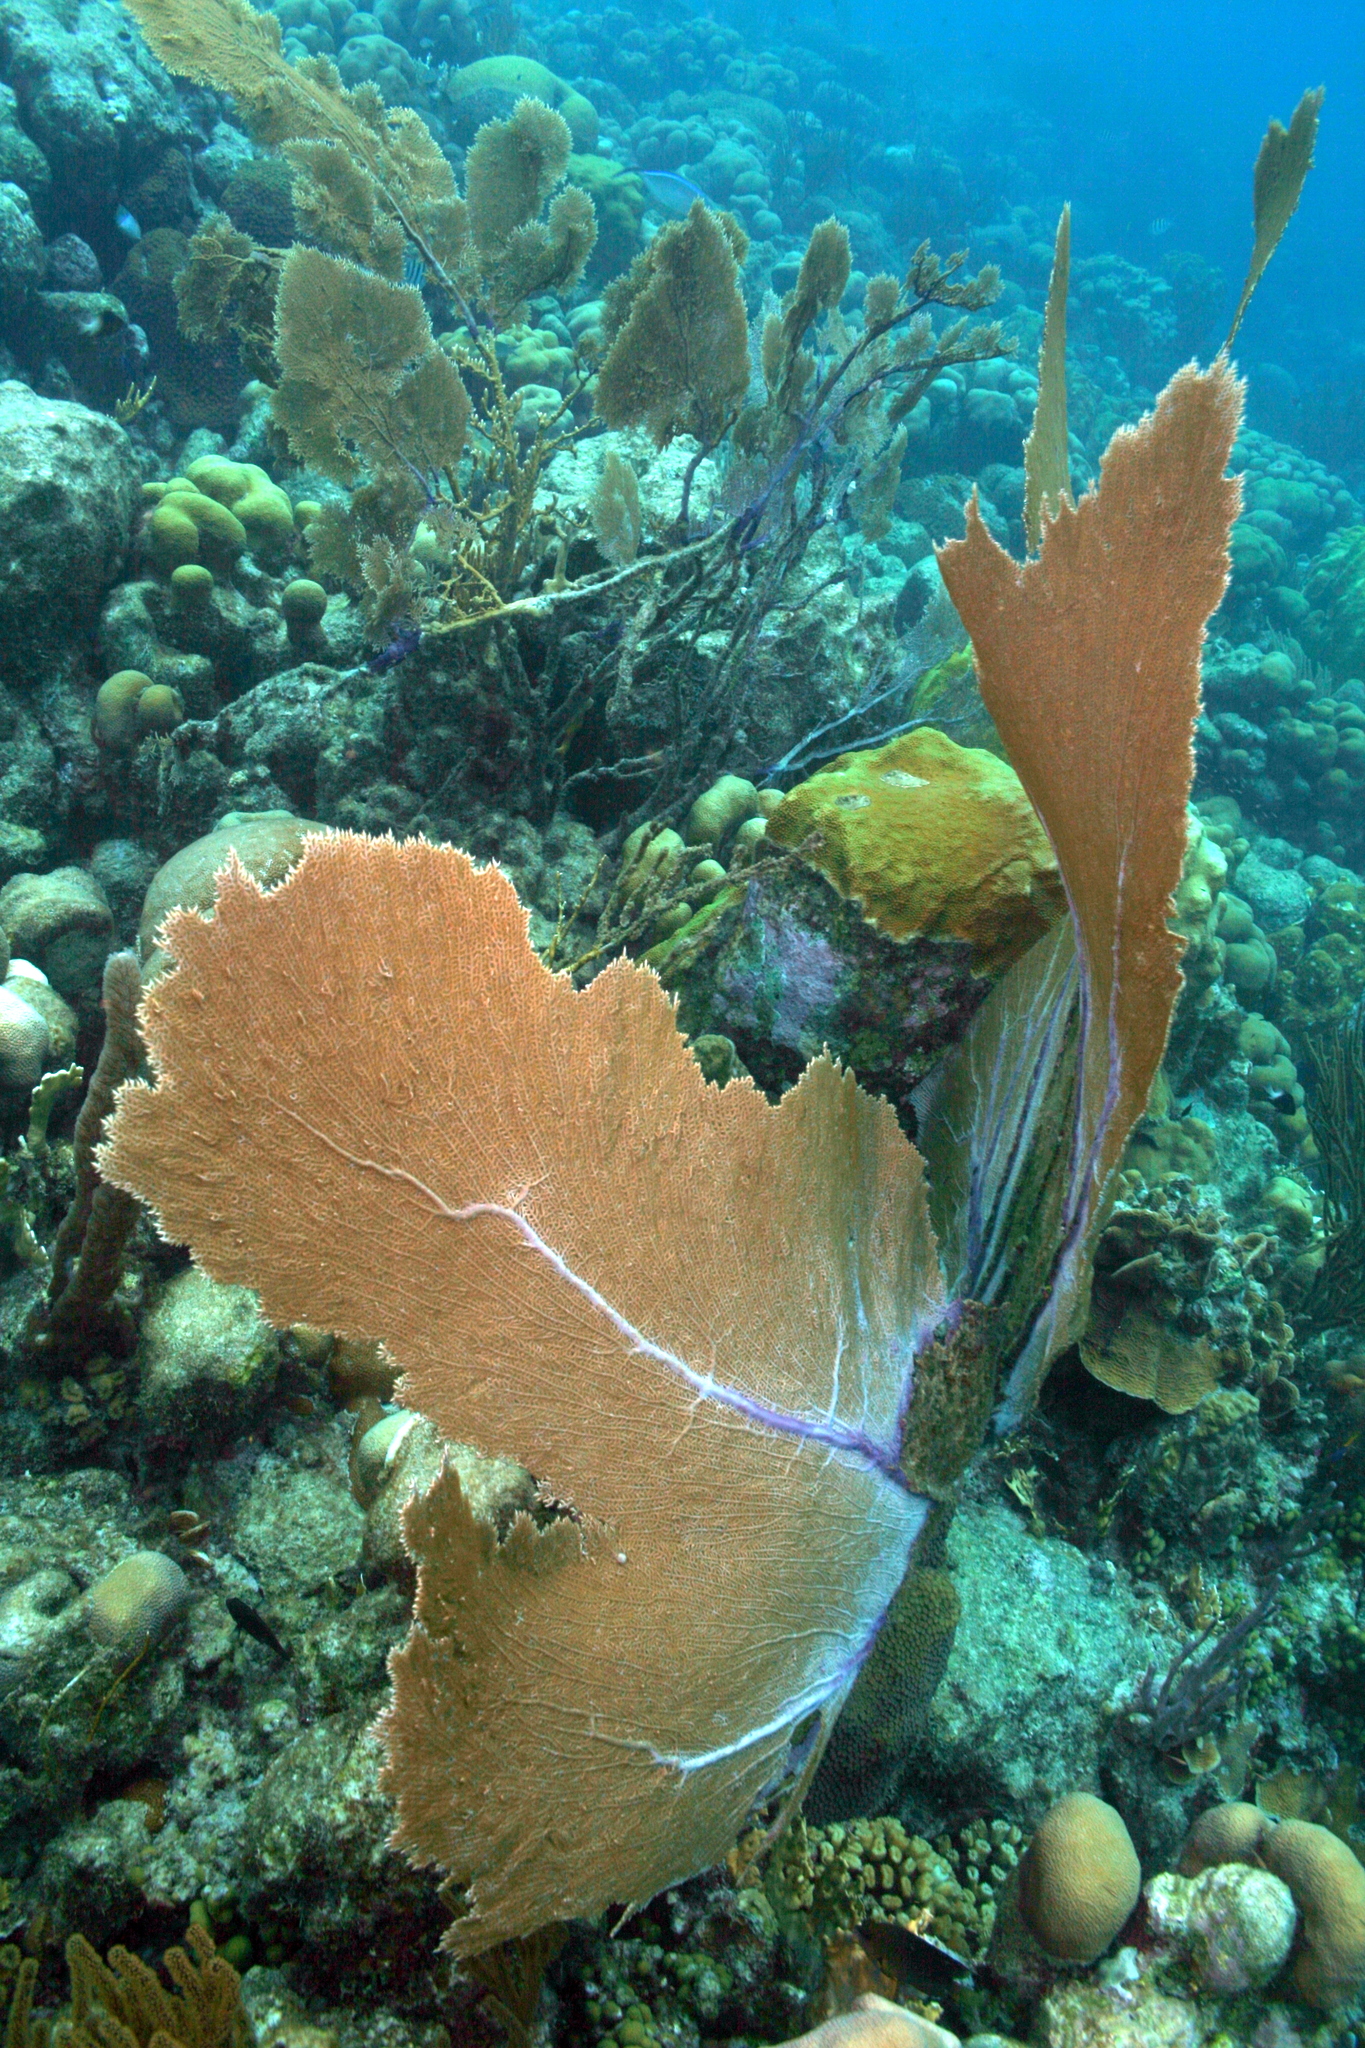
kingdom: Animalia
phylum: Cnidaria
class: Anthozoa
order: Malacalcyonacea
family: Gorgoniidae
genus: Gorgonia
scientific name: Gorgonia ventalina
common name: Common sea fan
